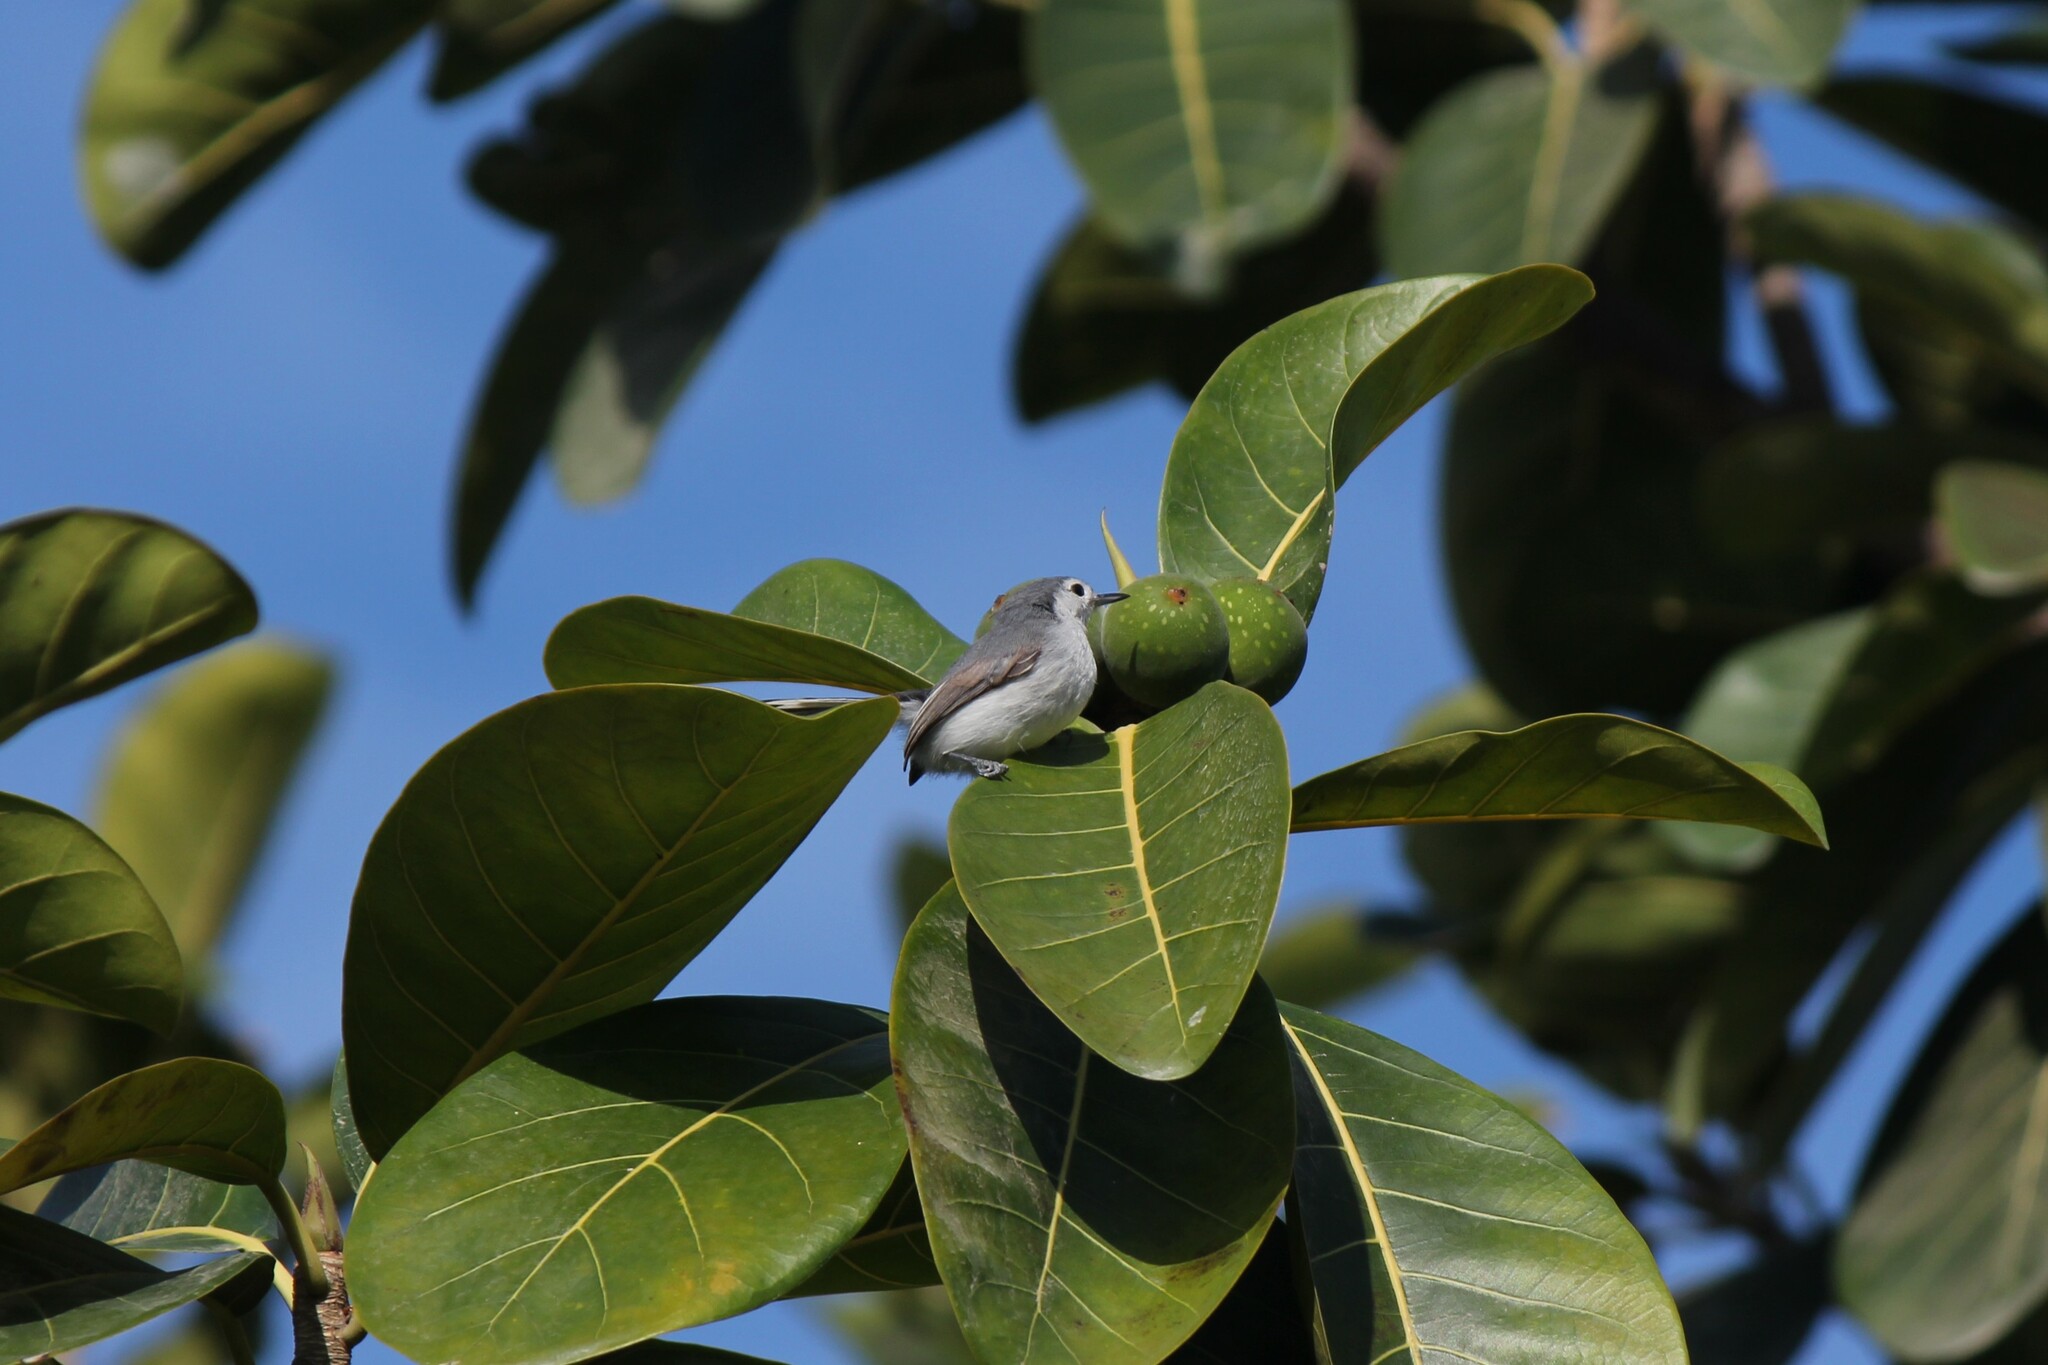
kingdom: Animalia
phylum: Chordata
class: Aves
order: Passeriformes
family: Polioptilidae
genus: Polioptila
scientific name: Polioptila plumbea
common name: Tropical gnatcatcher
